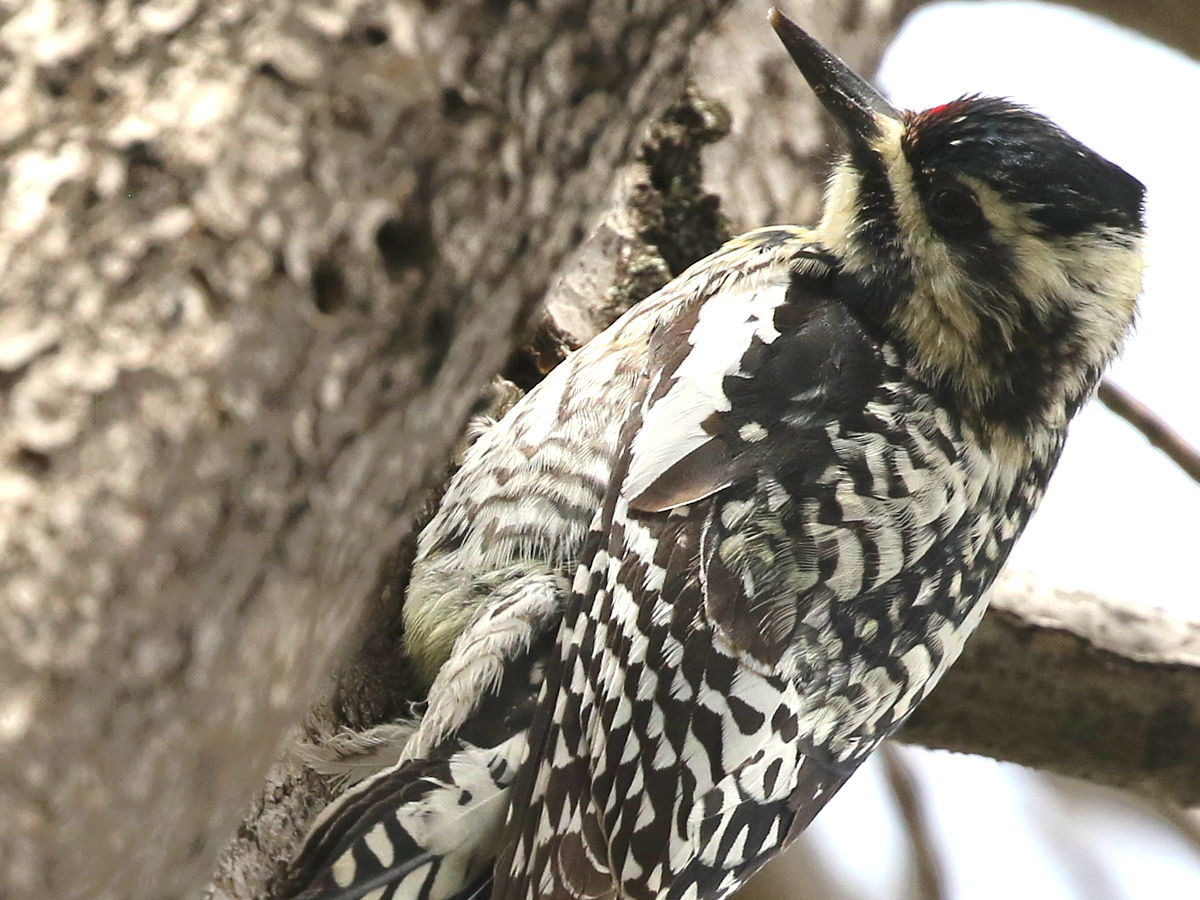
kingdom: Animalia
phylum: Chordata
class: Aves
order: Piciformes
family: Picidae
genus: Sphyrapicus
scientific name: Sphyrapicus varius
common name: Yellow-bellied sapsucker
